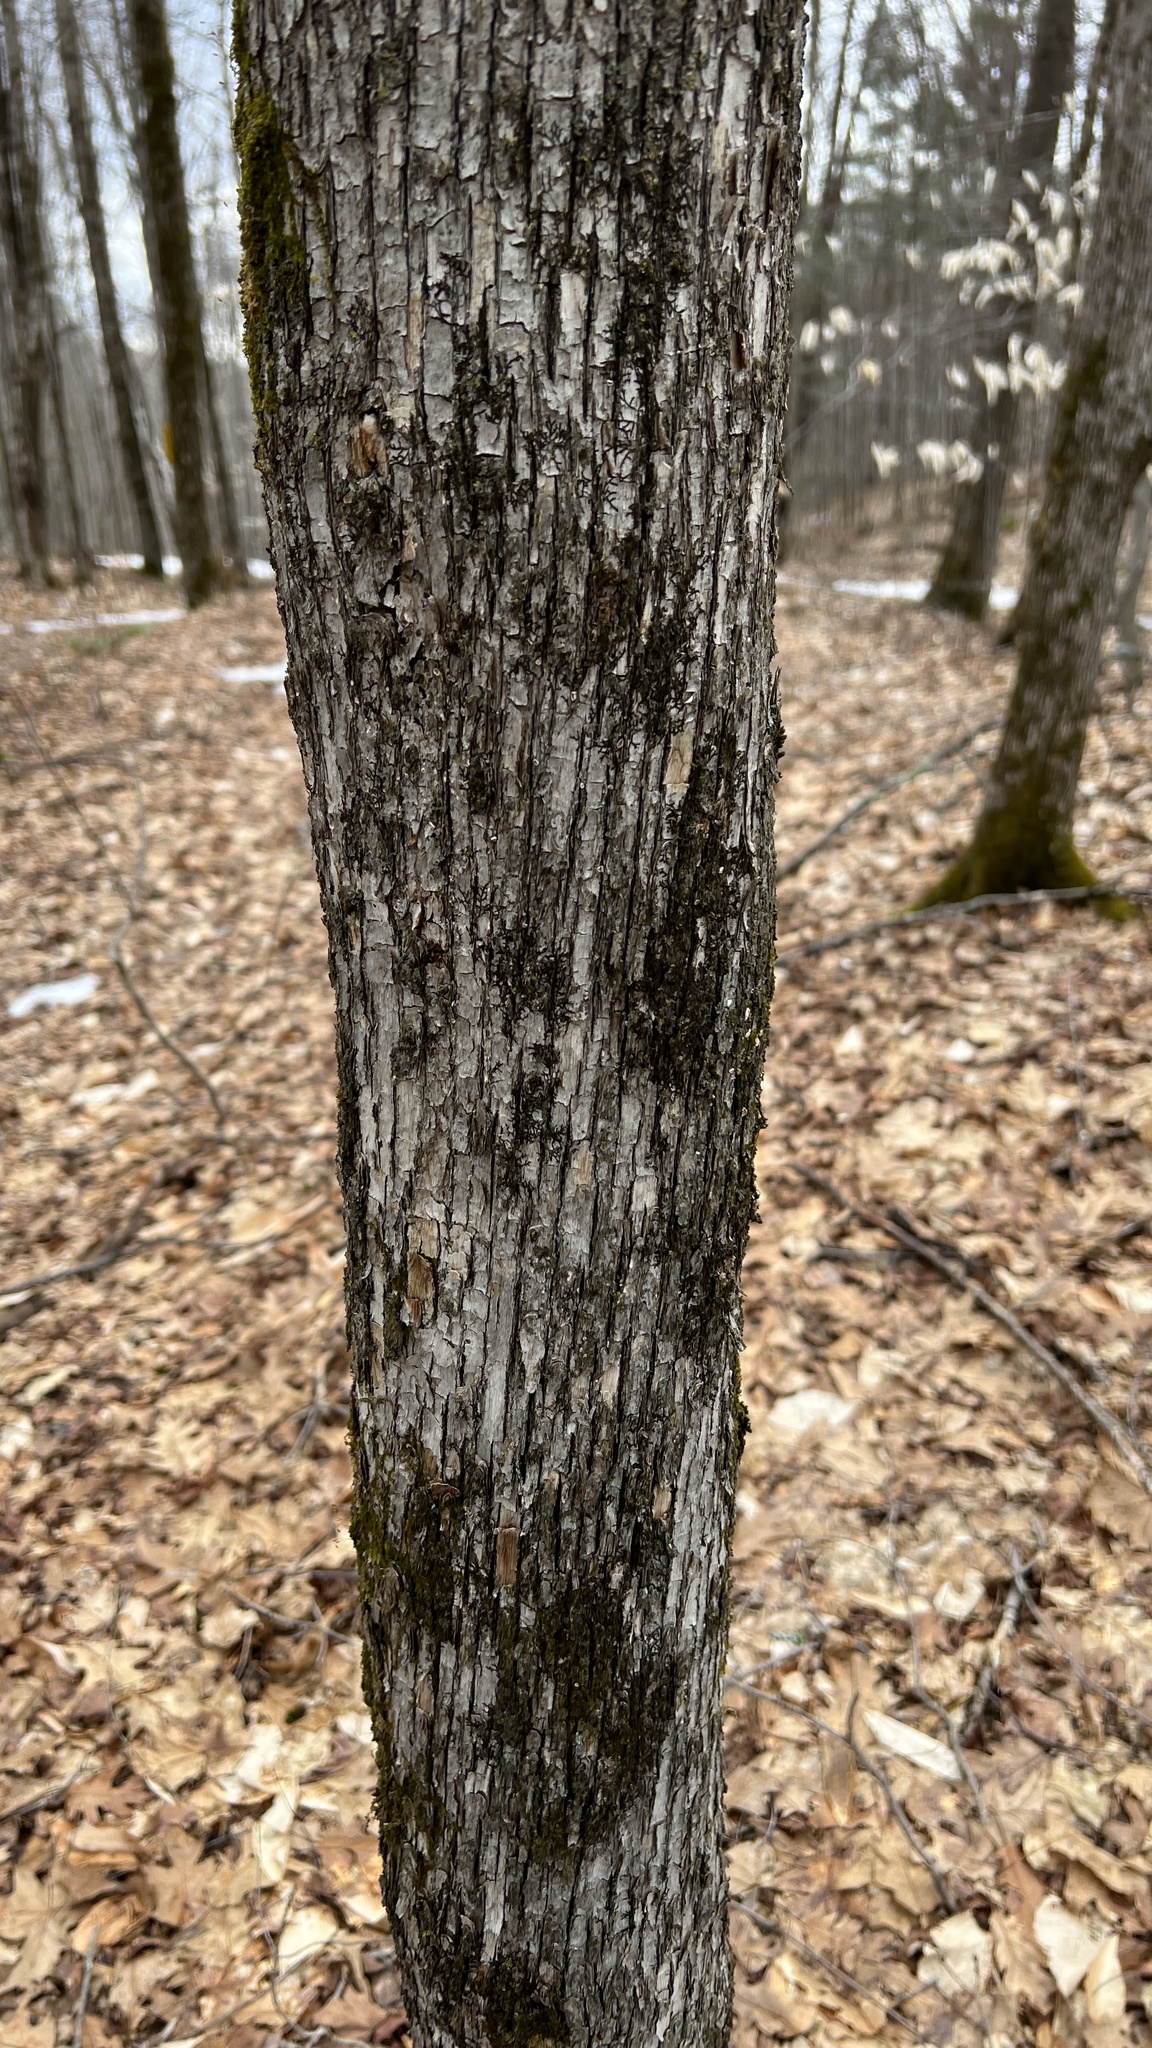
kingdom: Plantae
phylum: Tracheophyta
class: Magnoliopsida
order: Fagales
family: Betulaceae
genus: Ostrya
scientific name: Ostrya virginiana
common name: Ironwood
